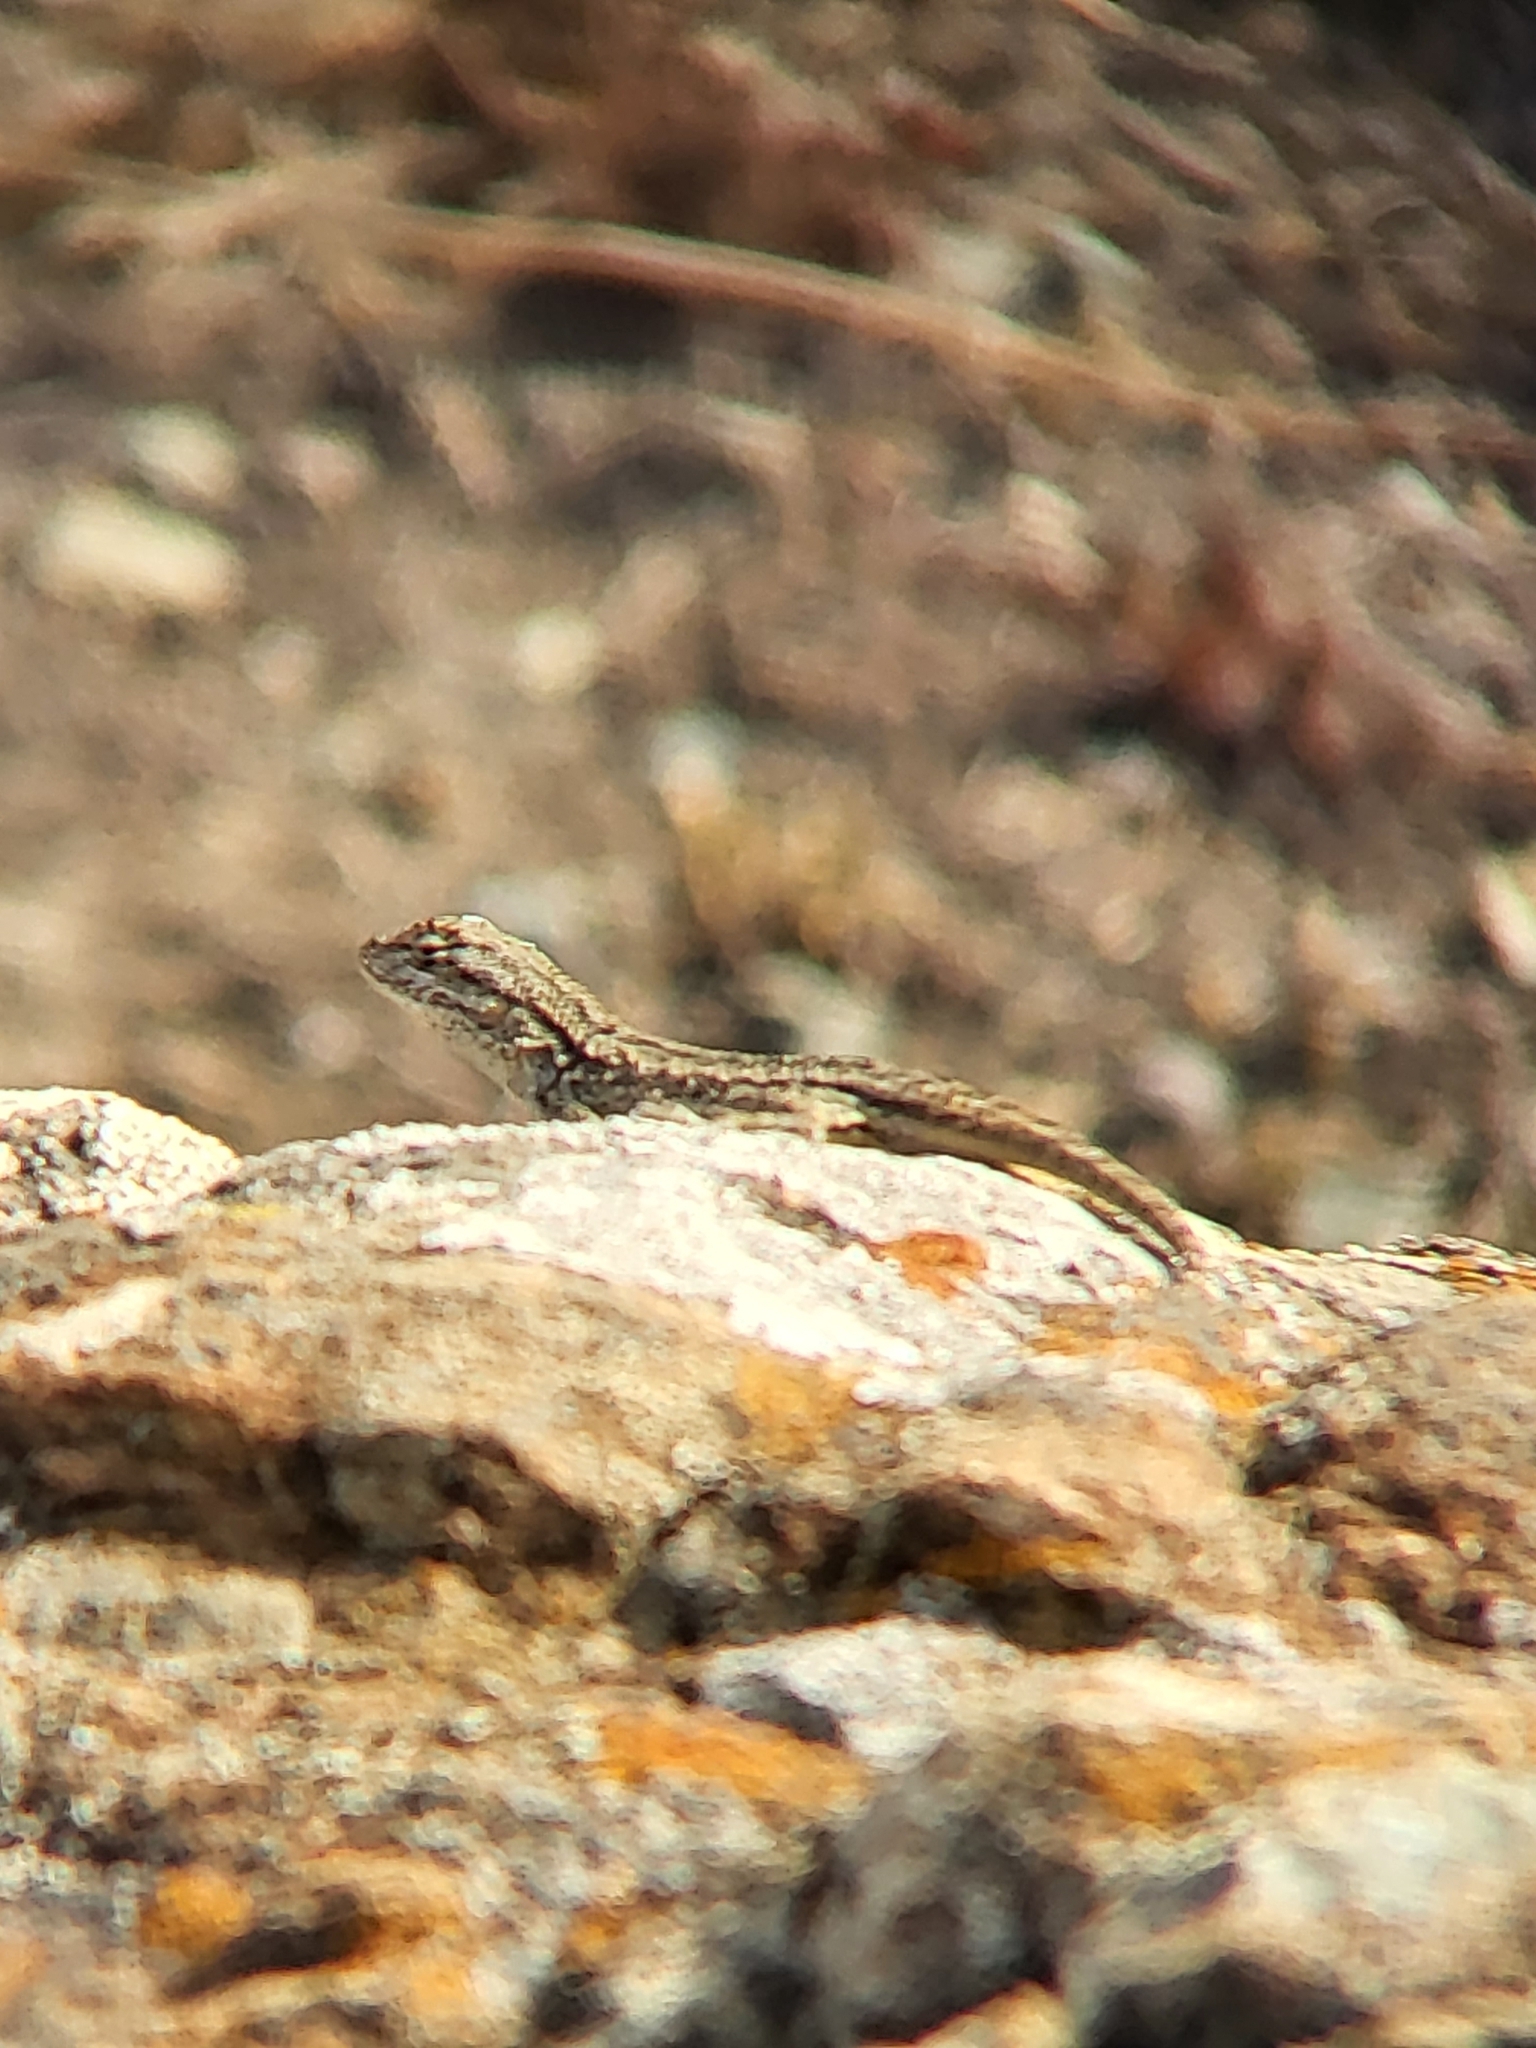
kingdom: Animalia
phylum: Chordata
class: Squamata
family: Phrynosomatidae
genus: Sceloporus
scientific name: Sceloporus occidentalis
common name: Western fence lizard
